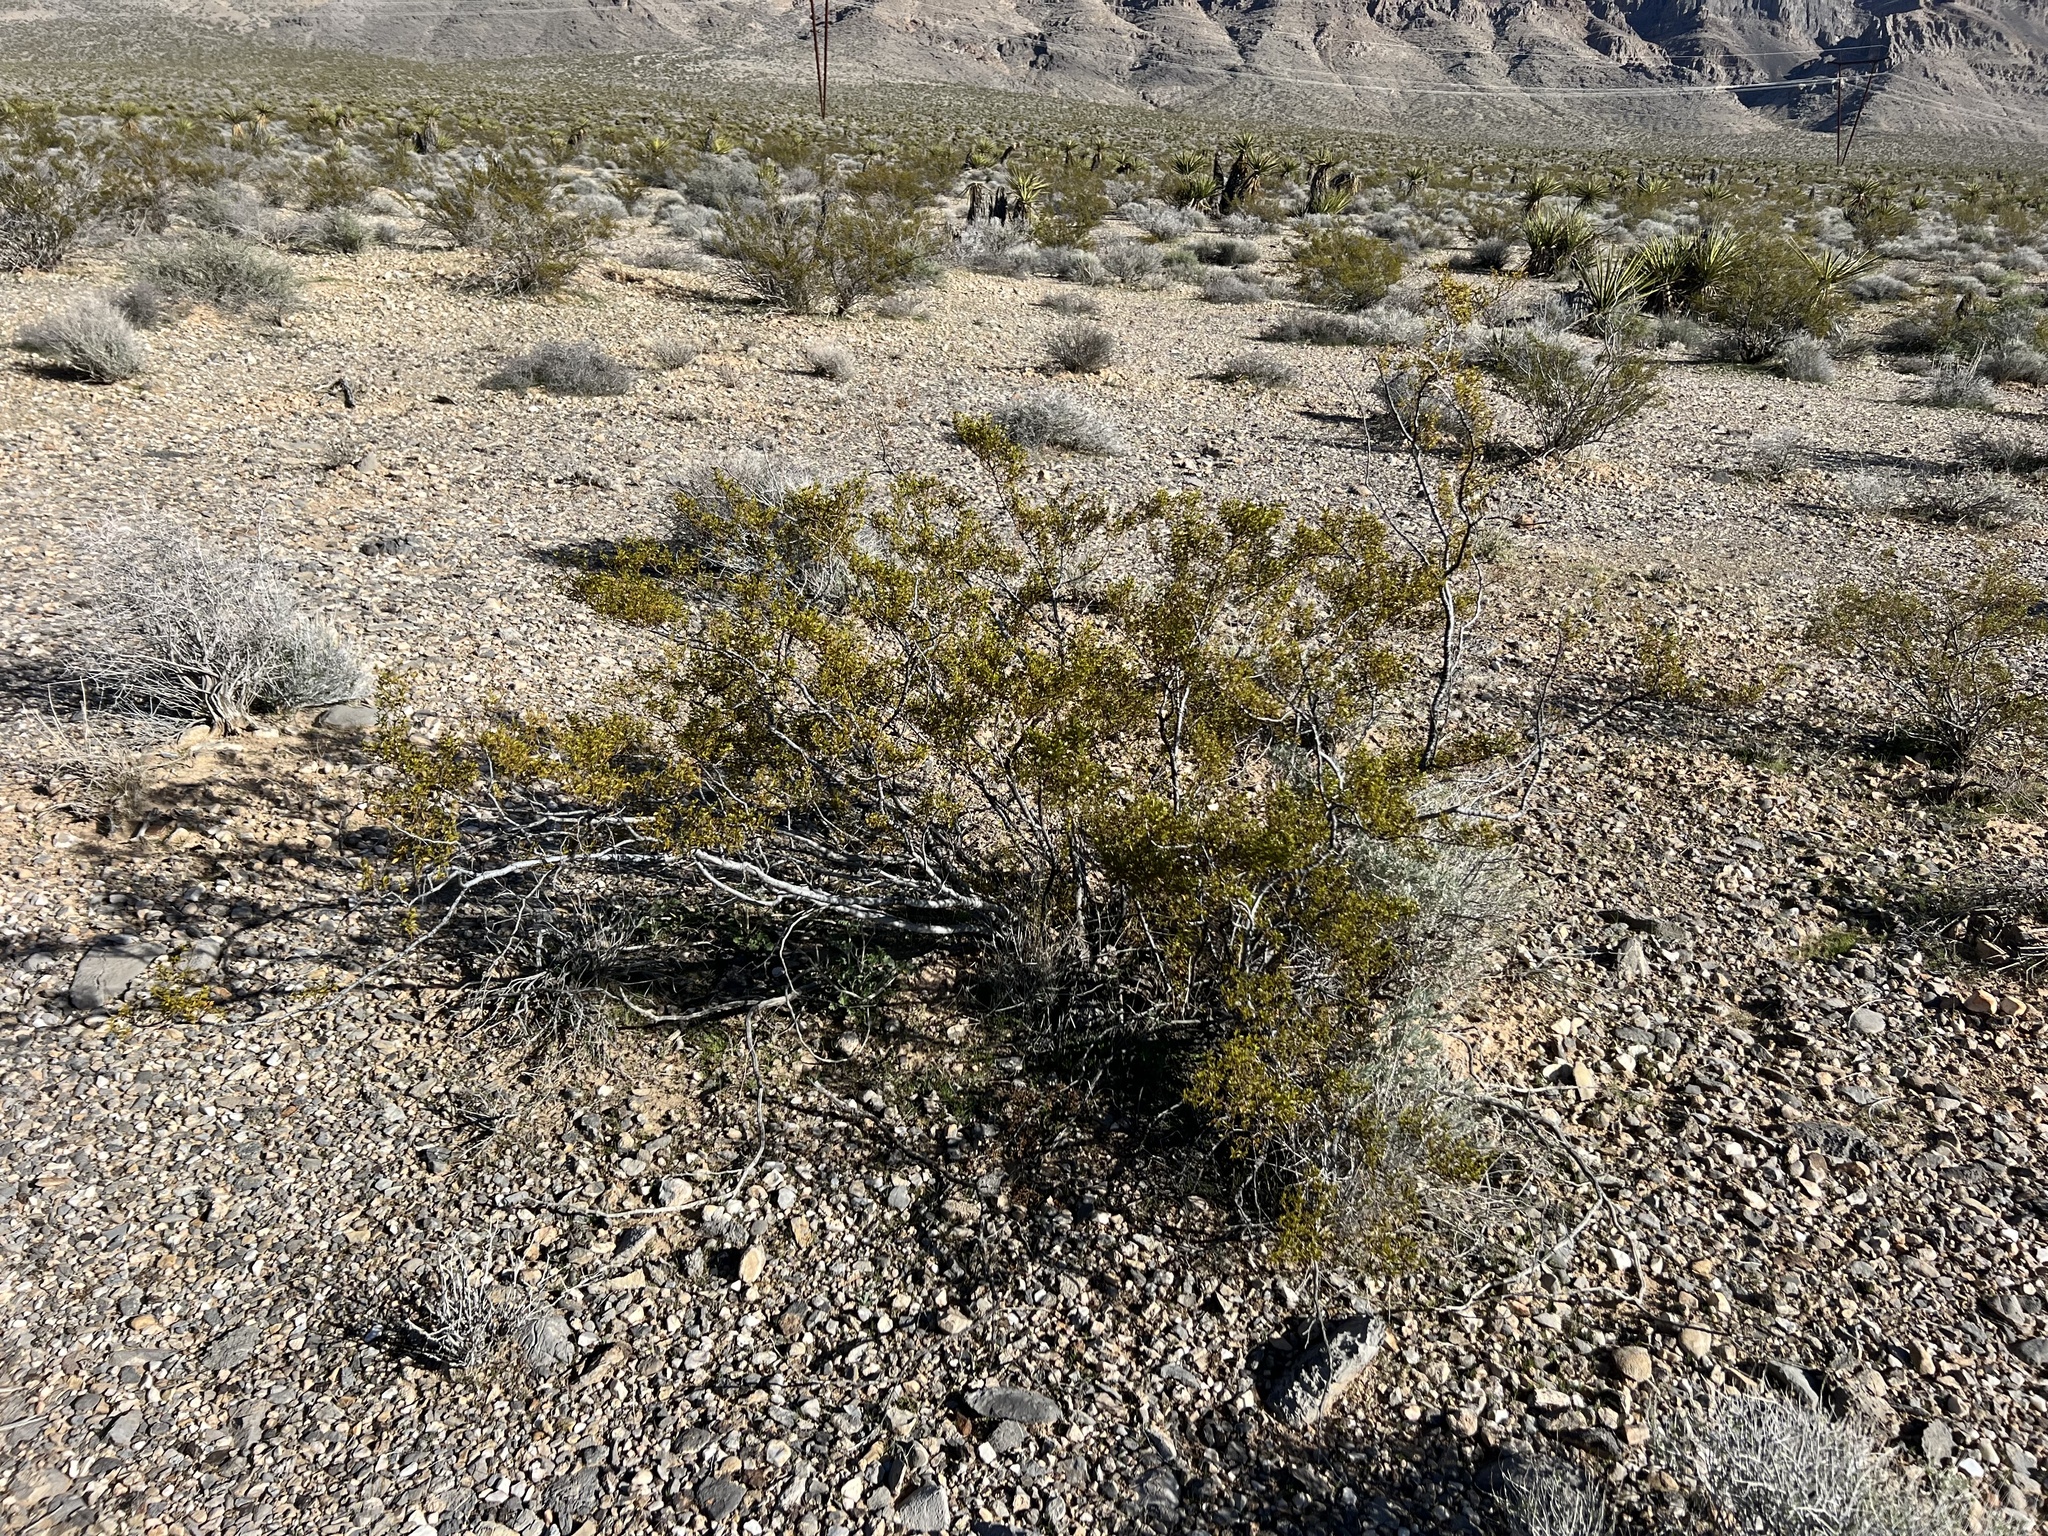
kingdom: Plantae
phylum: Tracheophyta
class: Magnoliopsida
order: Zygophyllales
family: Zygophyllaceae
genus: Larrea
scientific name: Larrea tridentata
